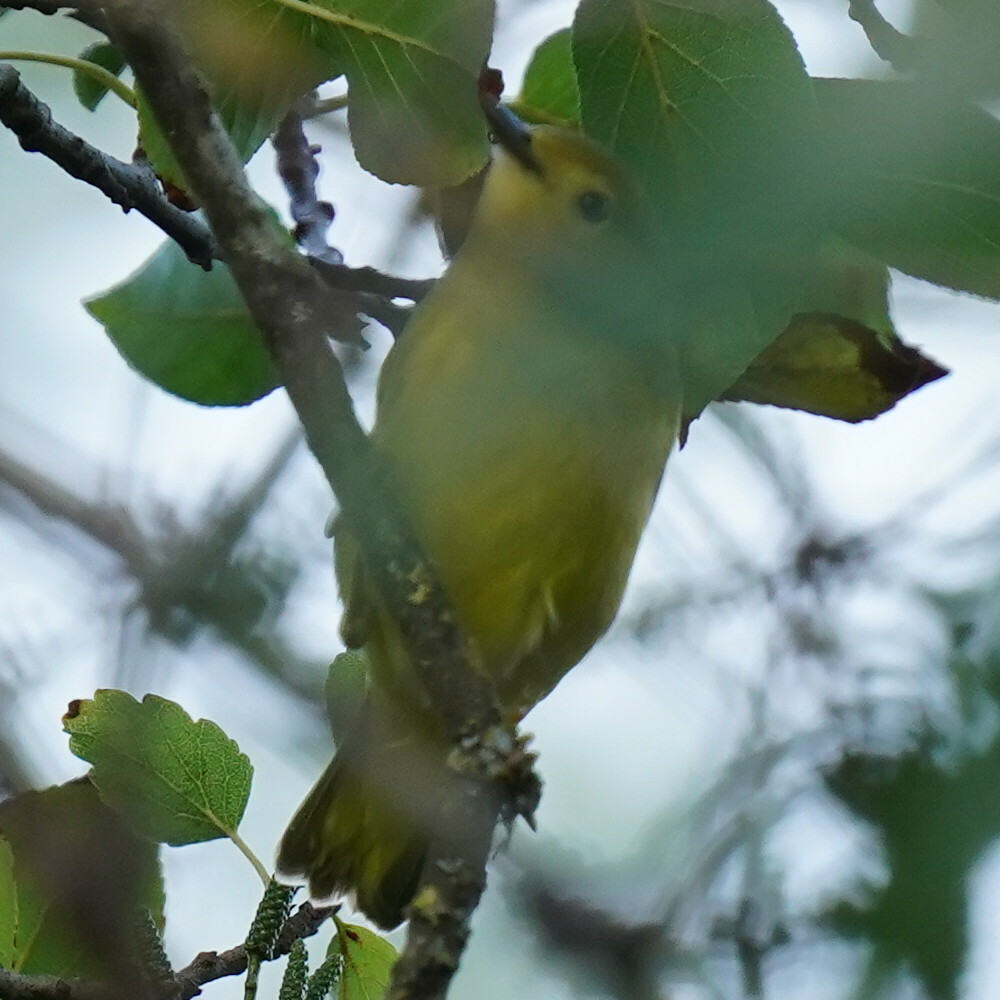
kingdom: Animalia
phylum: Chordata
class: Aves
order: Passeriformes
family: Parulidae
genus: Setophaga
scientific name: Setophaga petechia
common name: Yellow warbler
